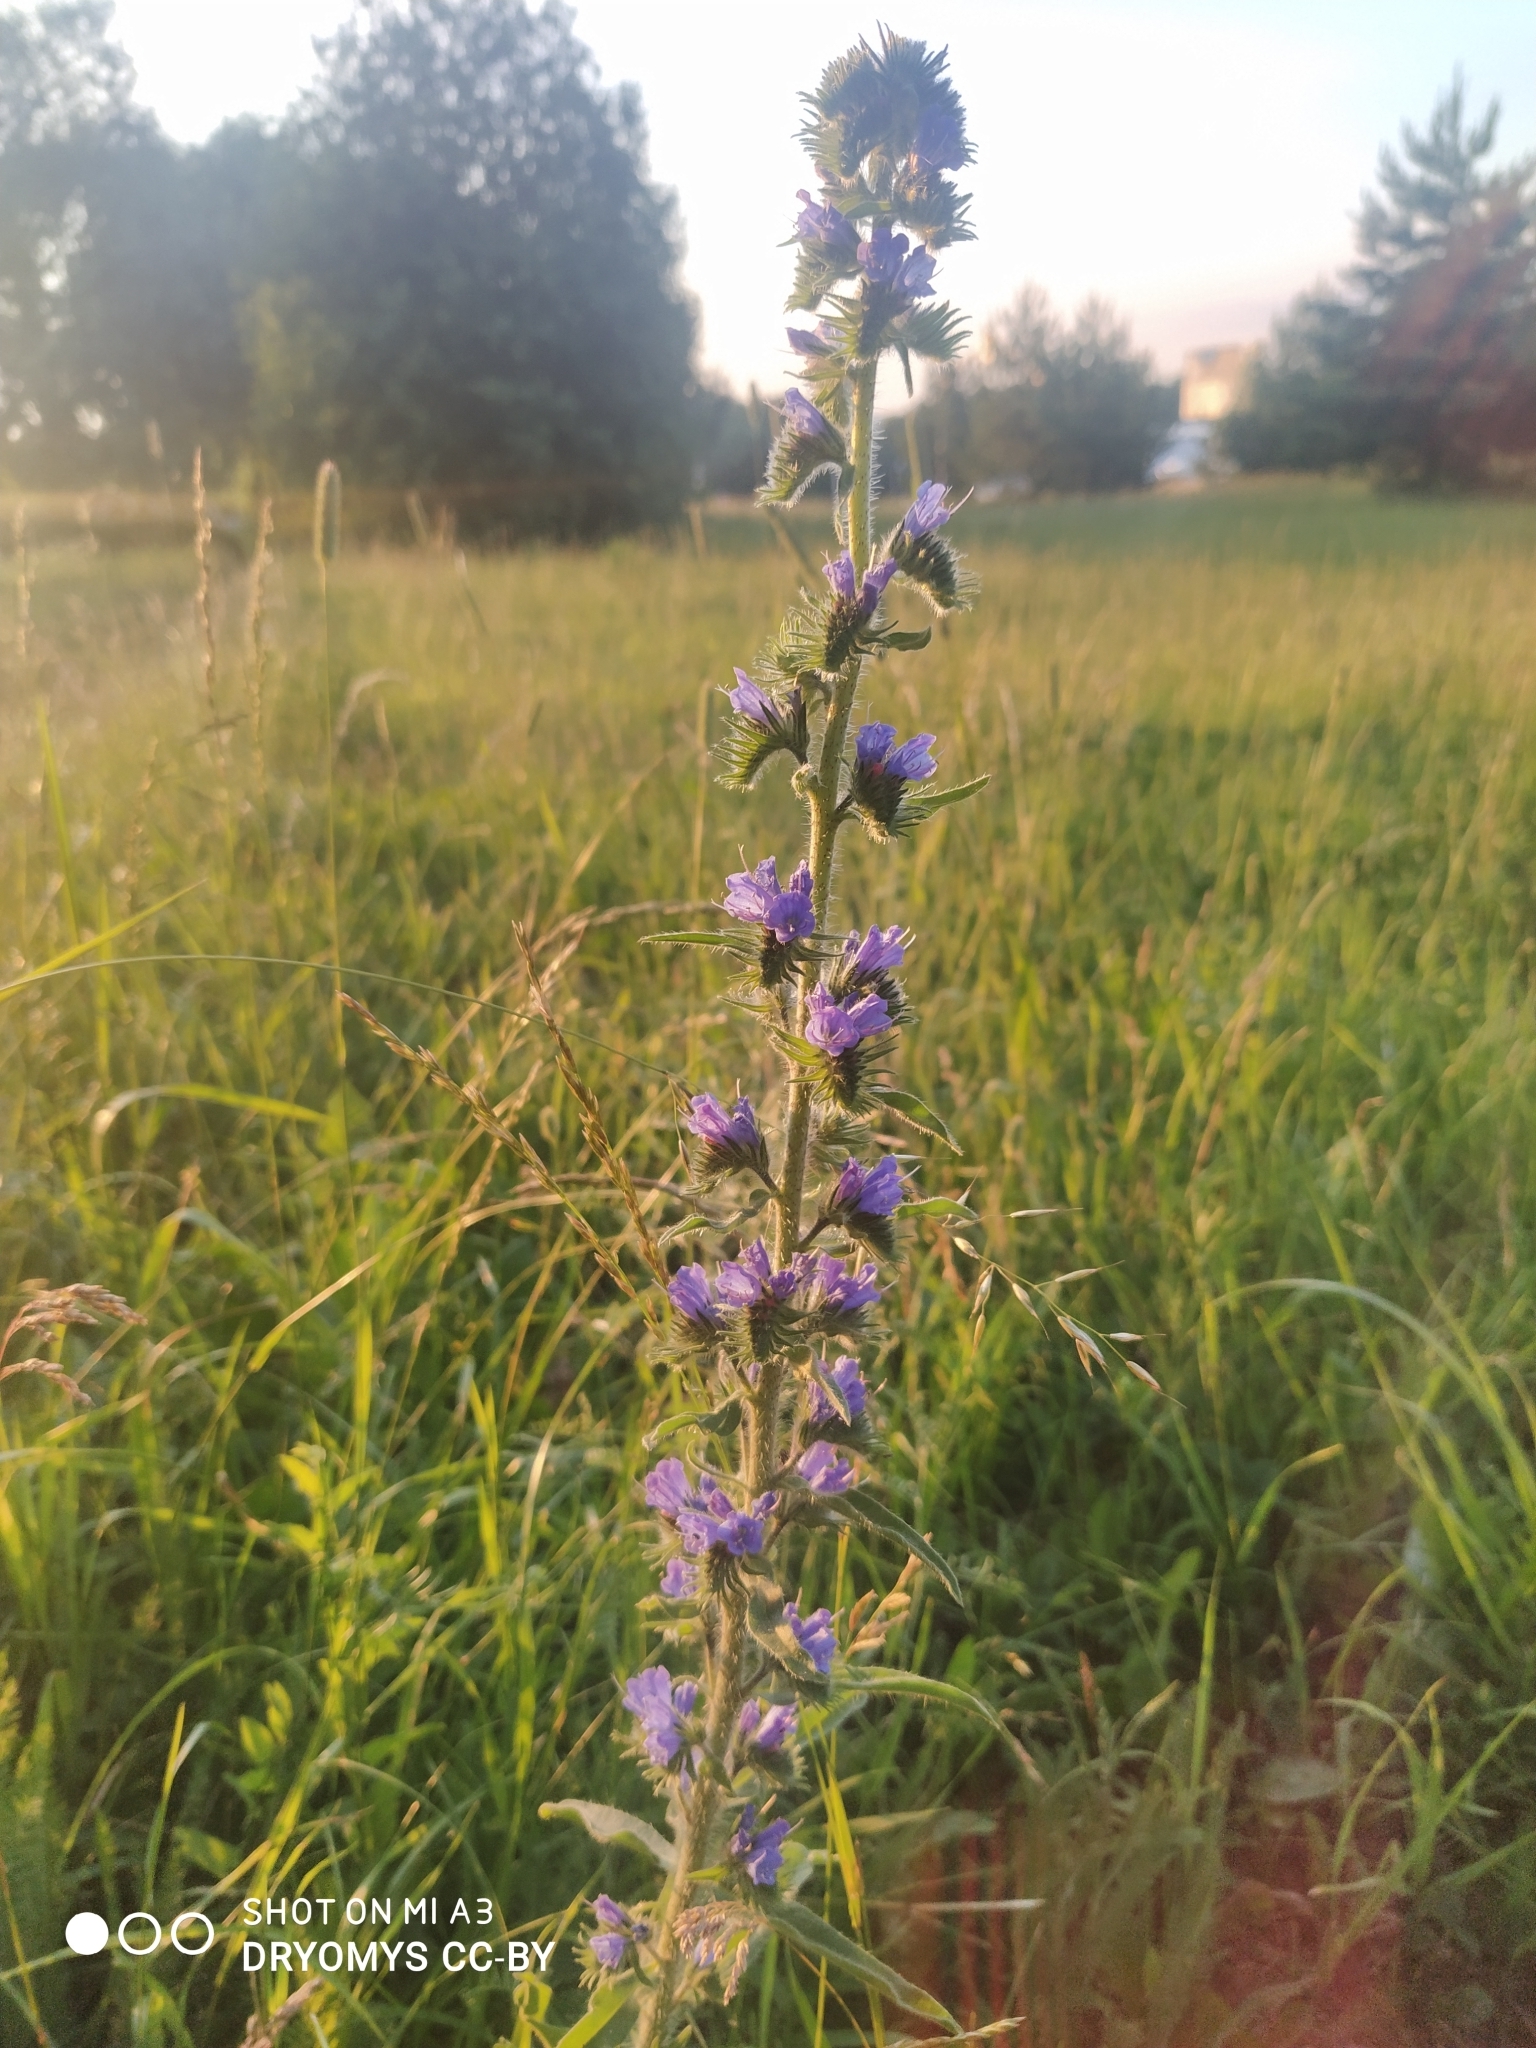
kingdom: Plantae
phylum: Tracheophyta
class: Magnoliopsida
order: Boraginales
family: Boraginaceae
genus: Echium
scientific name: Echium vulgare
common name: Common viper's bugloss
